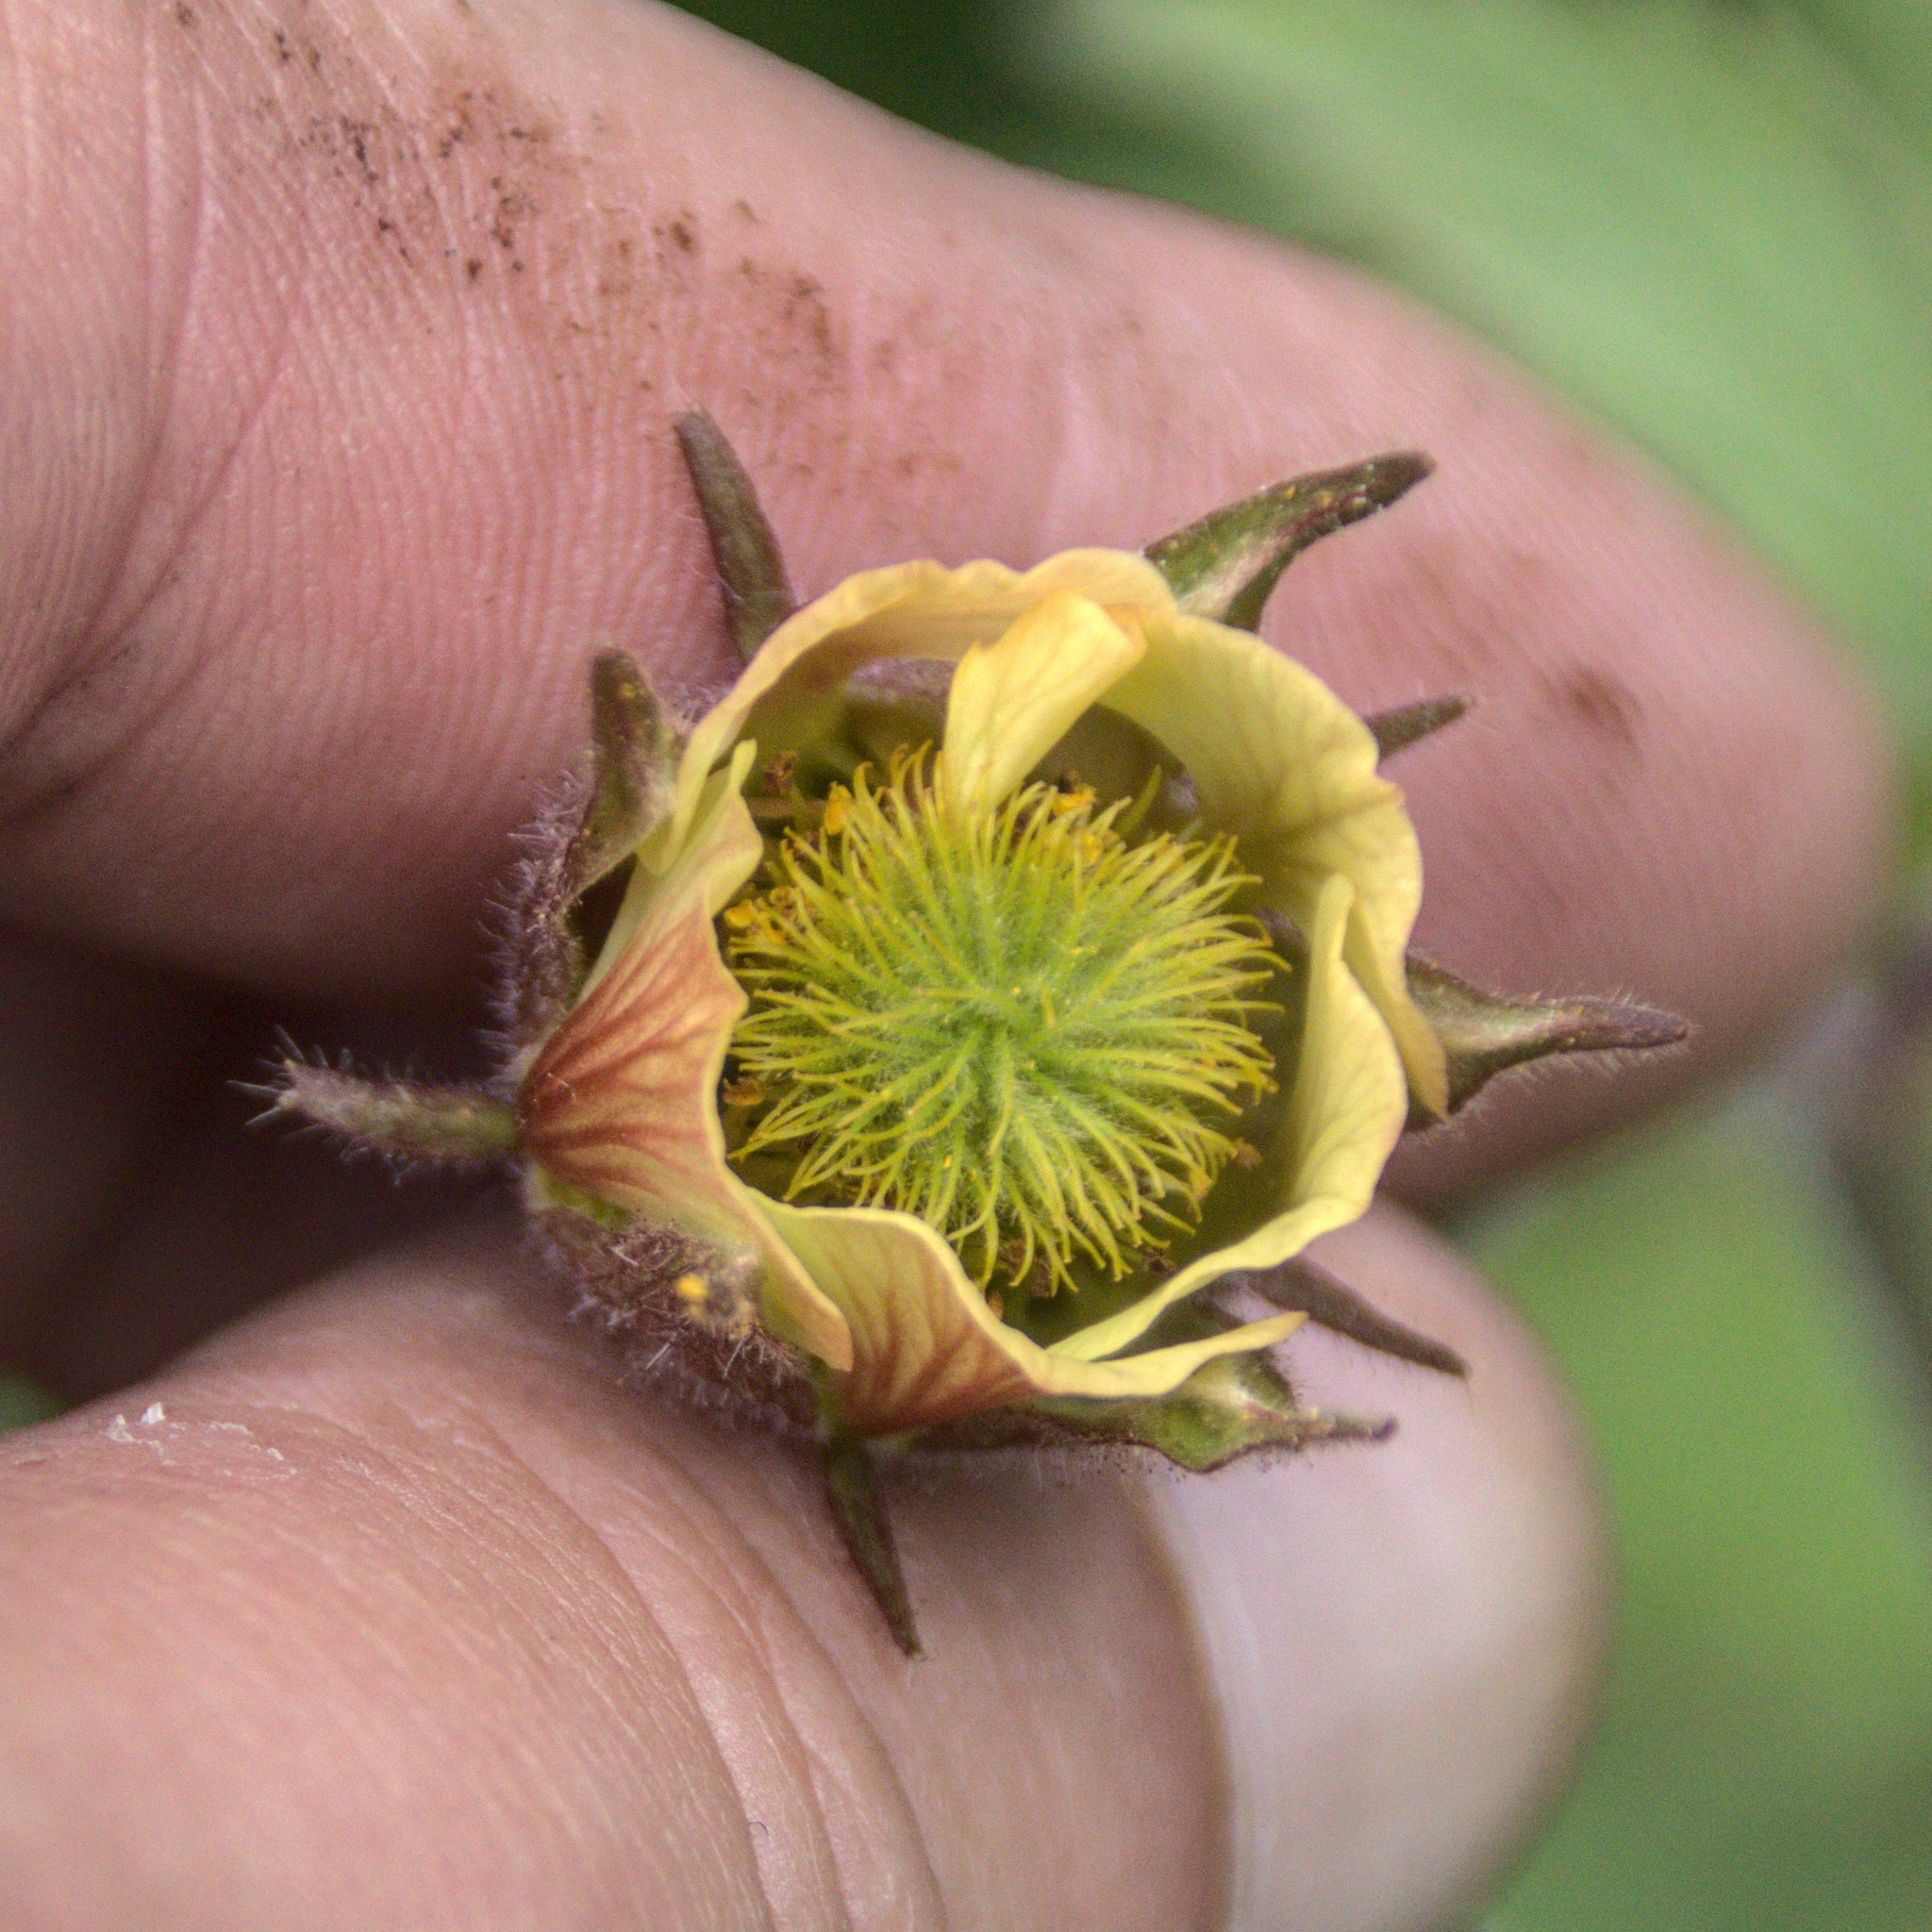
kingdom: Plantae
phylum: Tracheophyta
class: Magnoliopsida
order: Rosales
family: Rosaceae
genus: Geum
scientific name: Geum rivale
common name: Water avens
